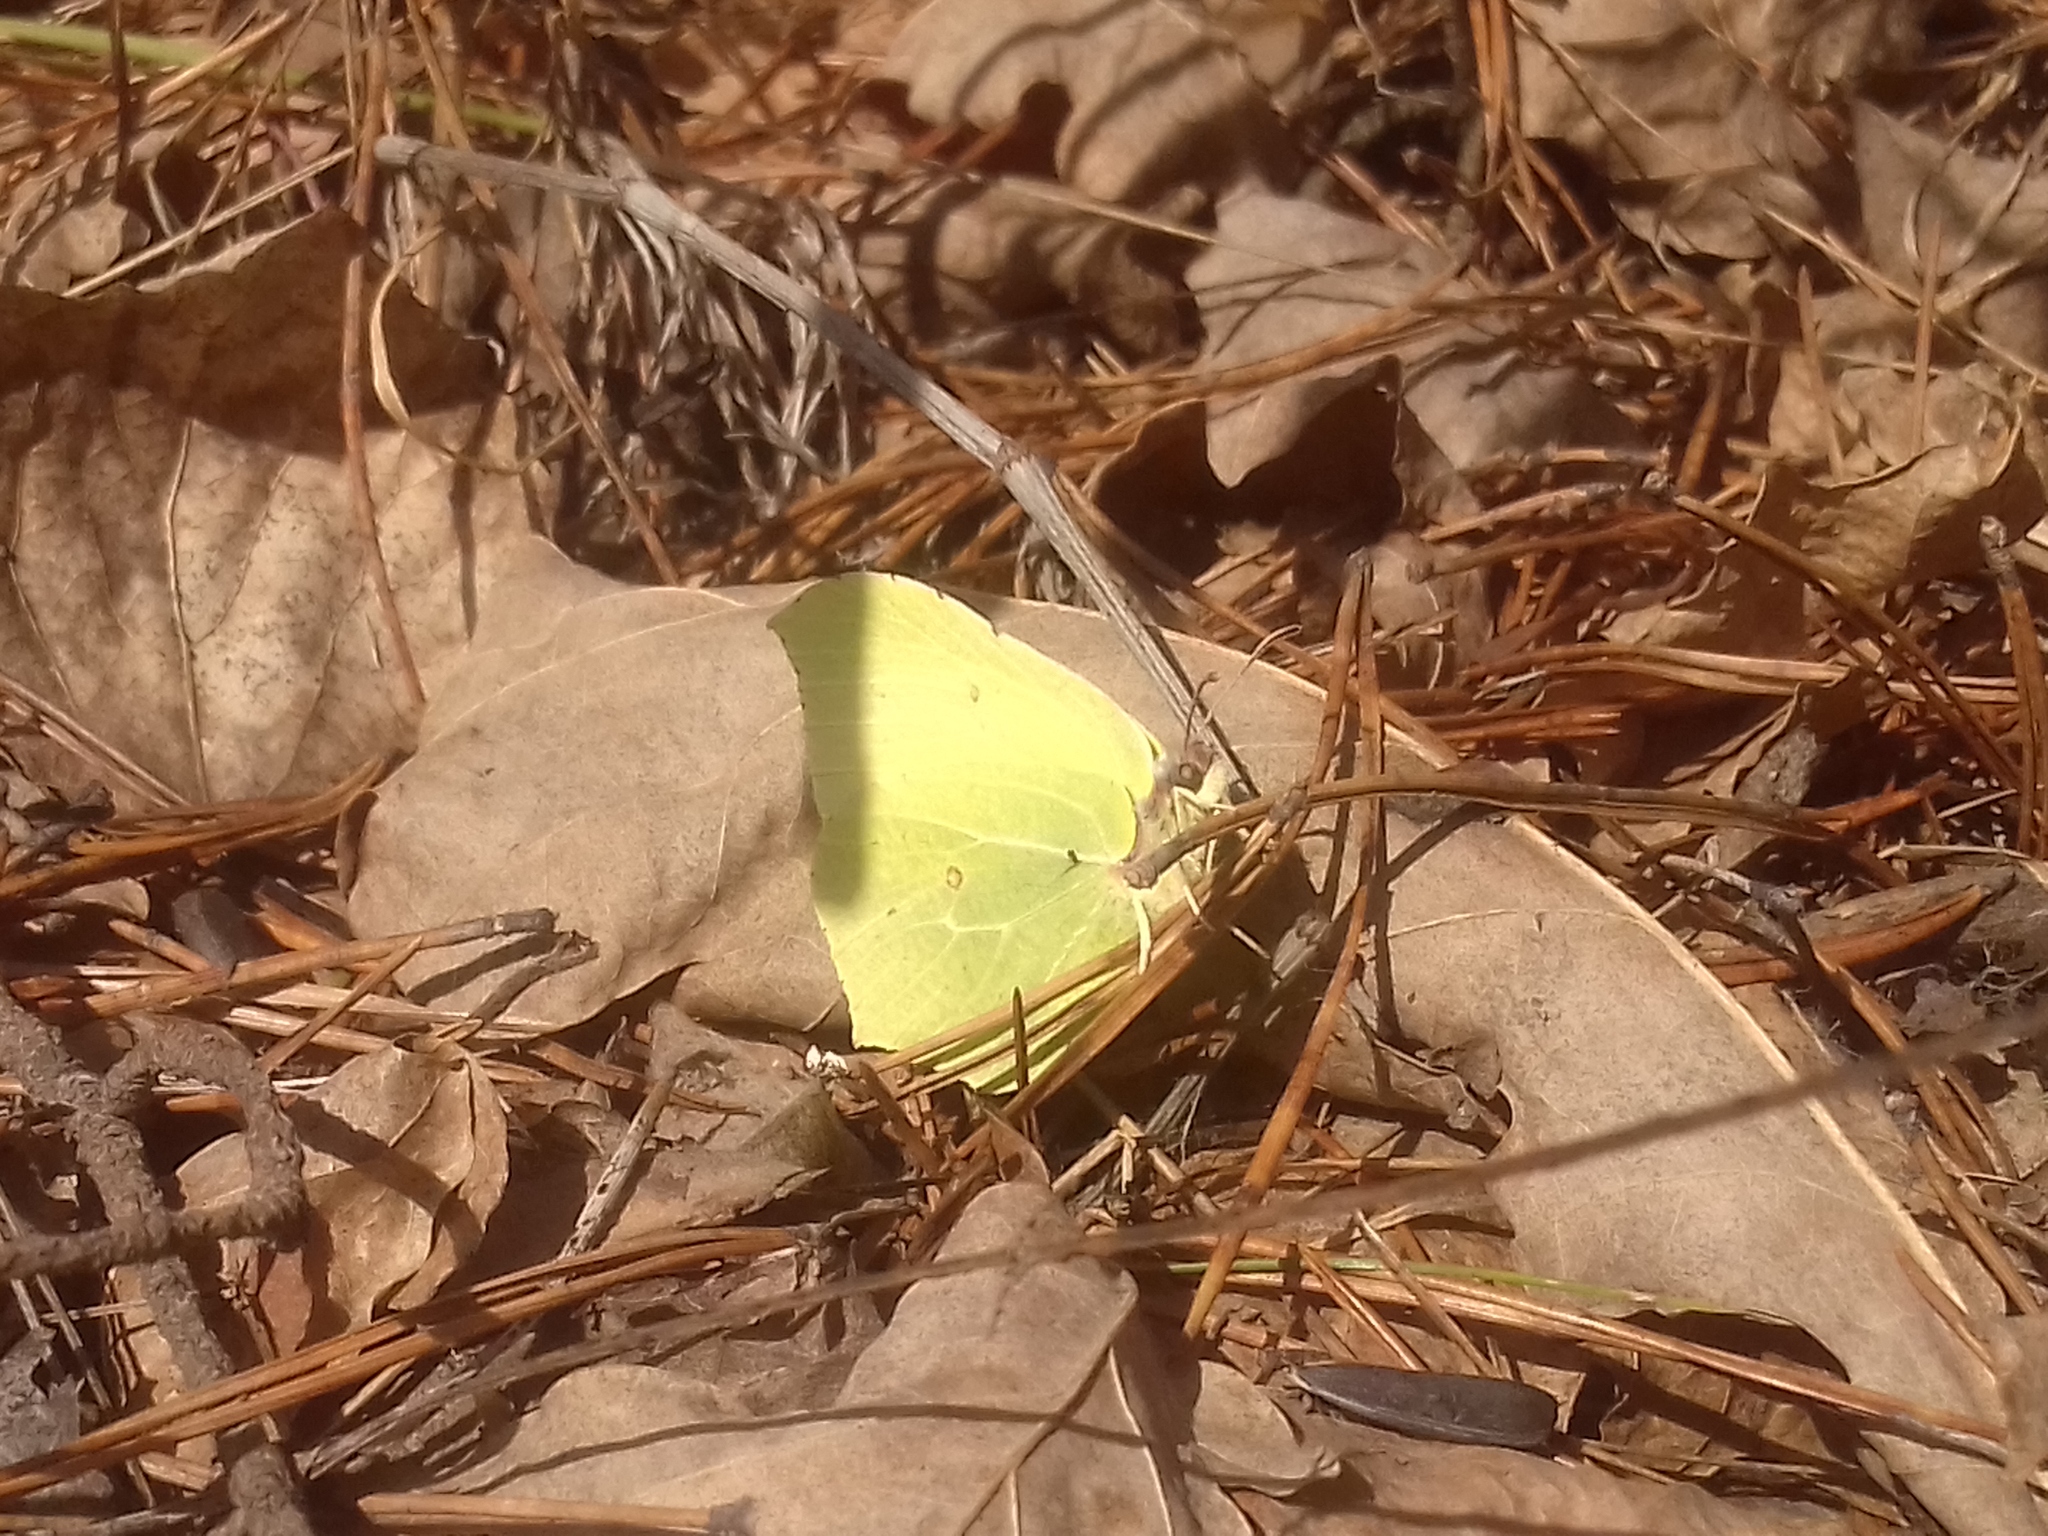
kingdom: Animalia
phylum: Arthropoda
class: Insecta
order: Lepidoptera
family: Pieridae
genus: Gonepteryx
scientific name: Gonepteryx rhamni
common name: Brimstone
